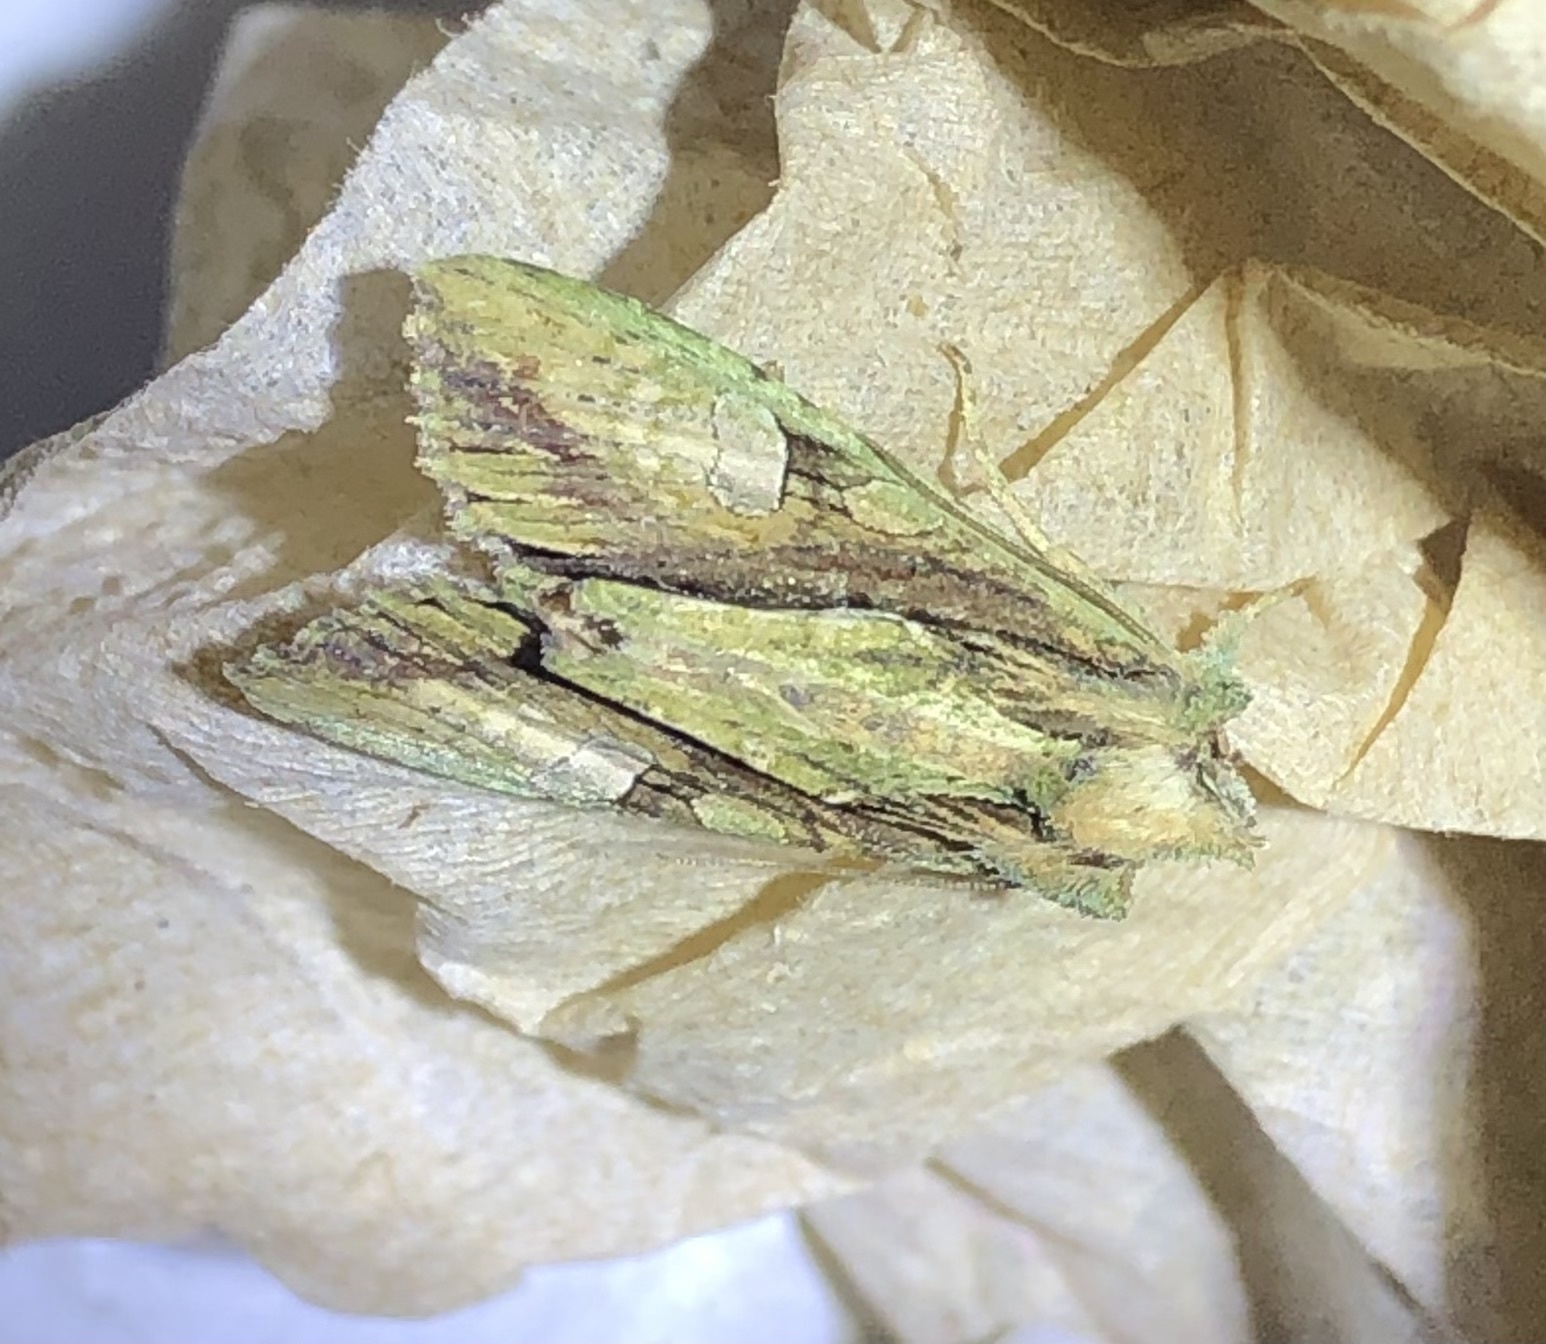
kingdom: Animalia
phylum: Arthropoda
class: Insecta
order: Lepidoptera
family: Noctuidae
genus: Meterana
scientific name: Meterana decorata
